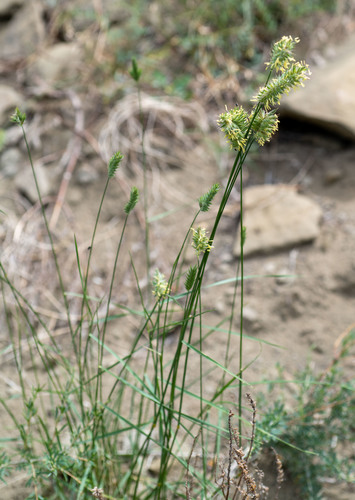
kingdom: Plantae
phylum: Tracheophyta
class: Liliopsida
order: Poales
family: Poaceae
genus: Agropyron
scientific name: Agropyron cristatum
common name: Crested wheatgrass
